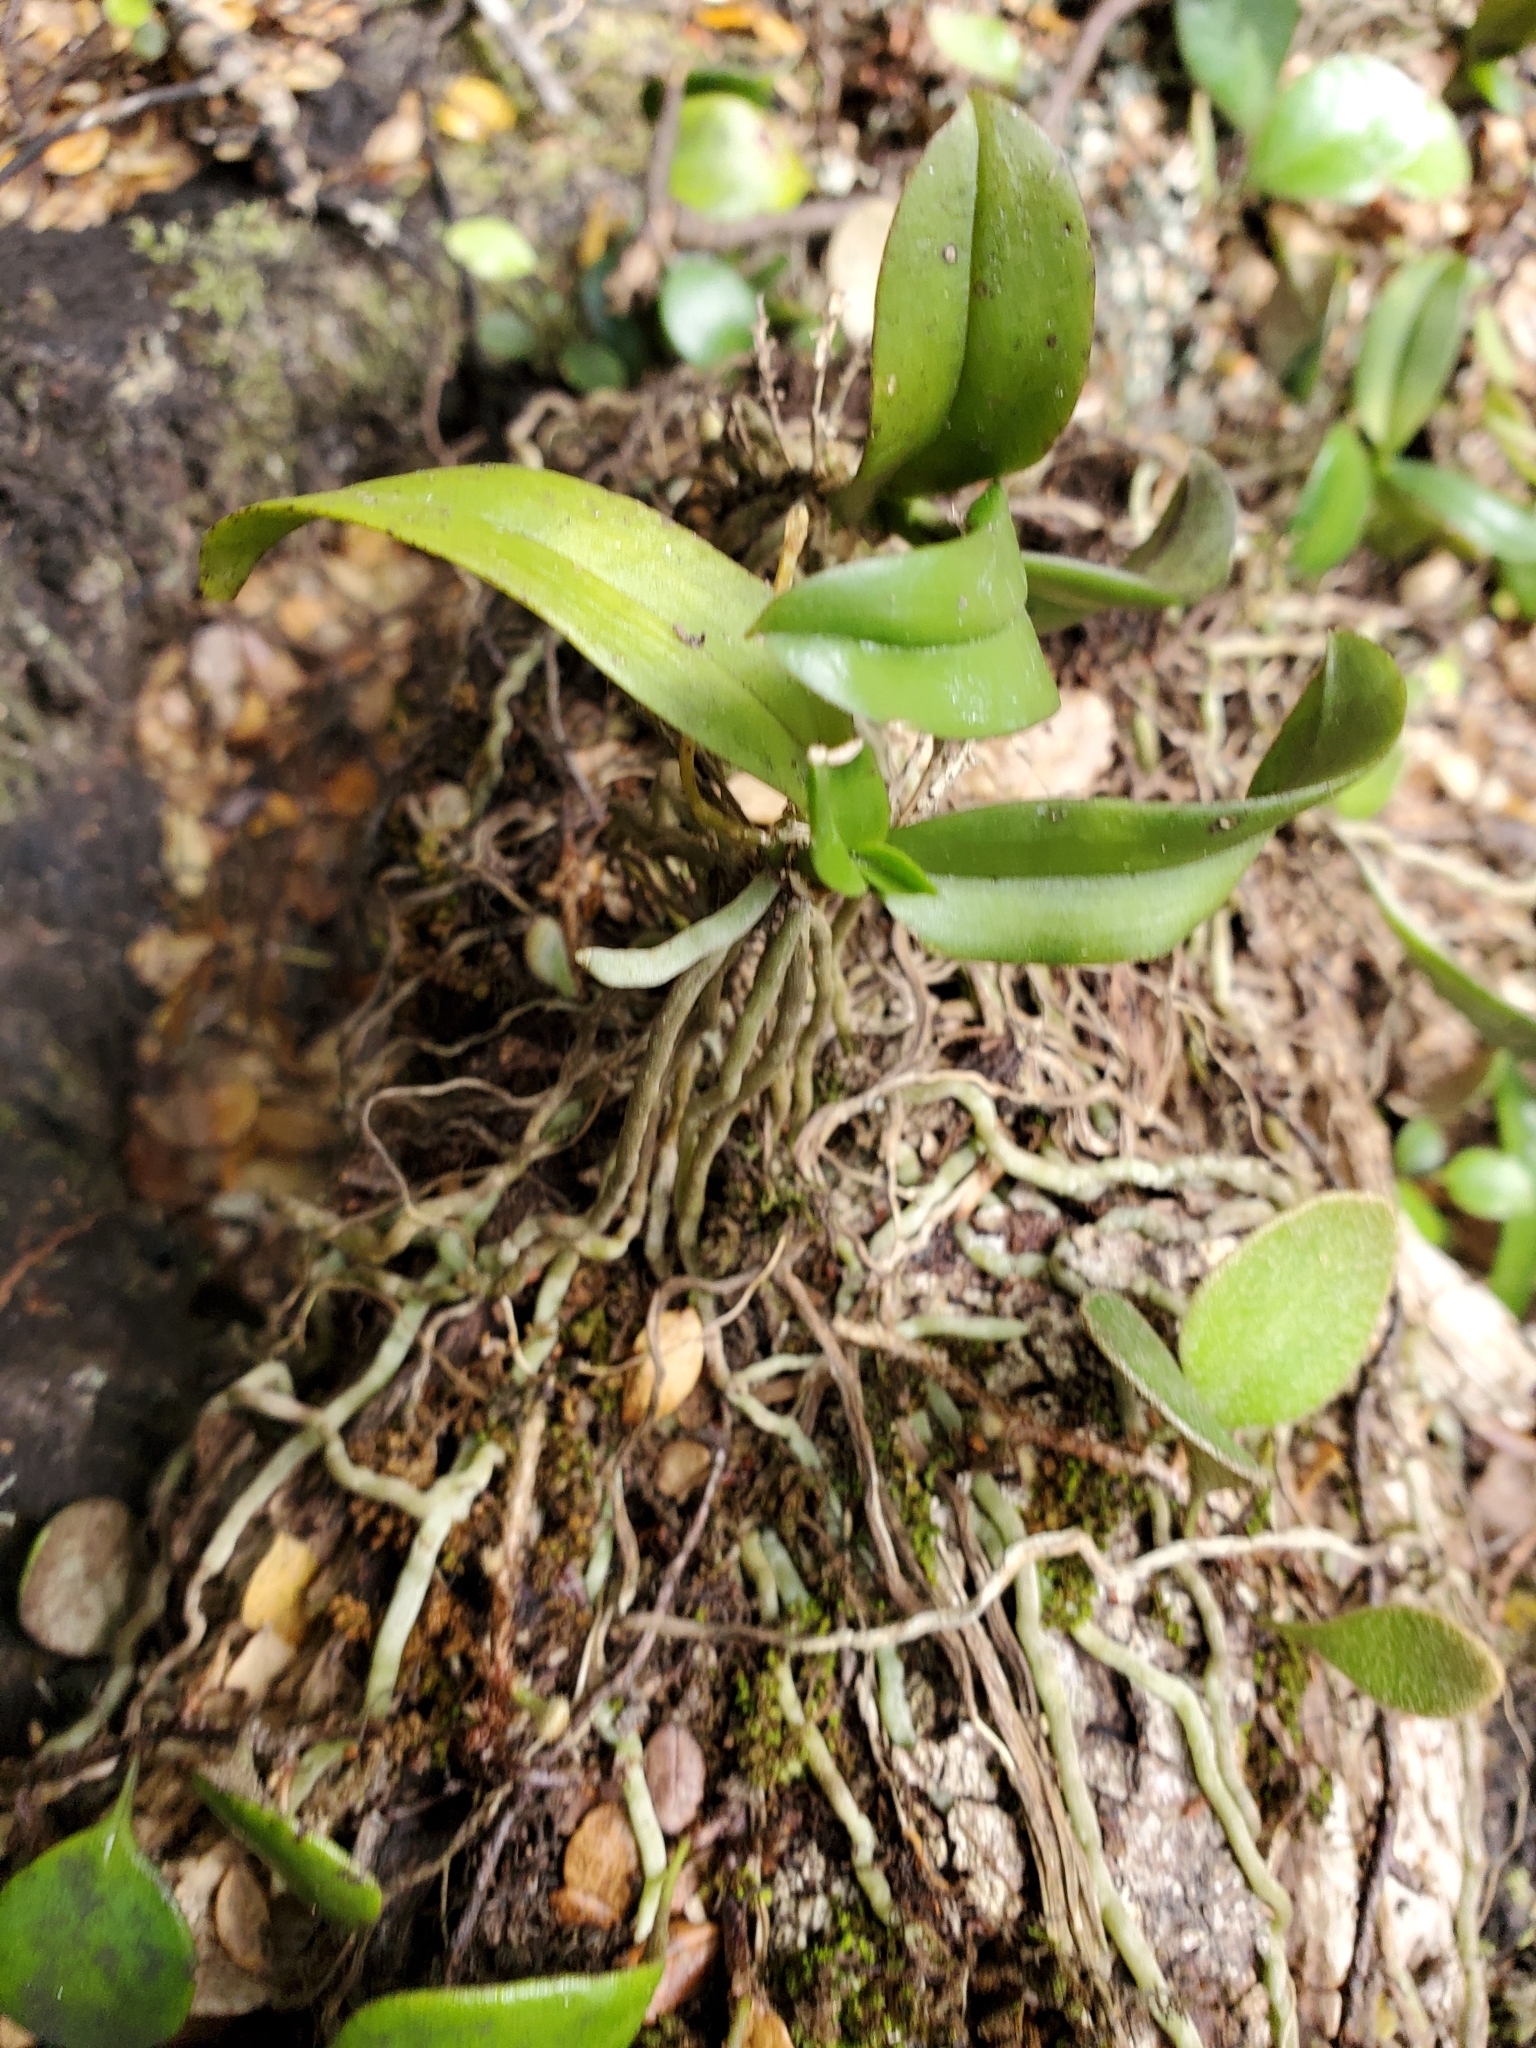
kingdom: Plantae
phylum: Tracheophyta
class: Liliopsida
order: Asparagales
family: Orchidaceae
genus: Drymoanthus
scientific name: Drymoanthus adversus
